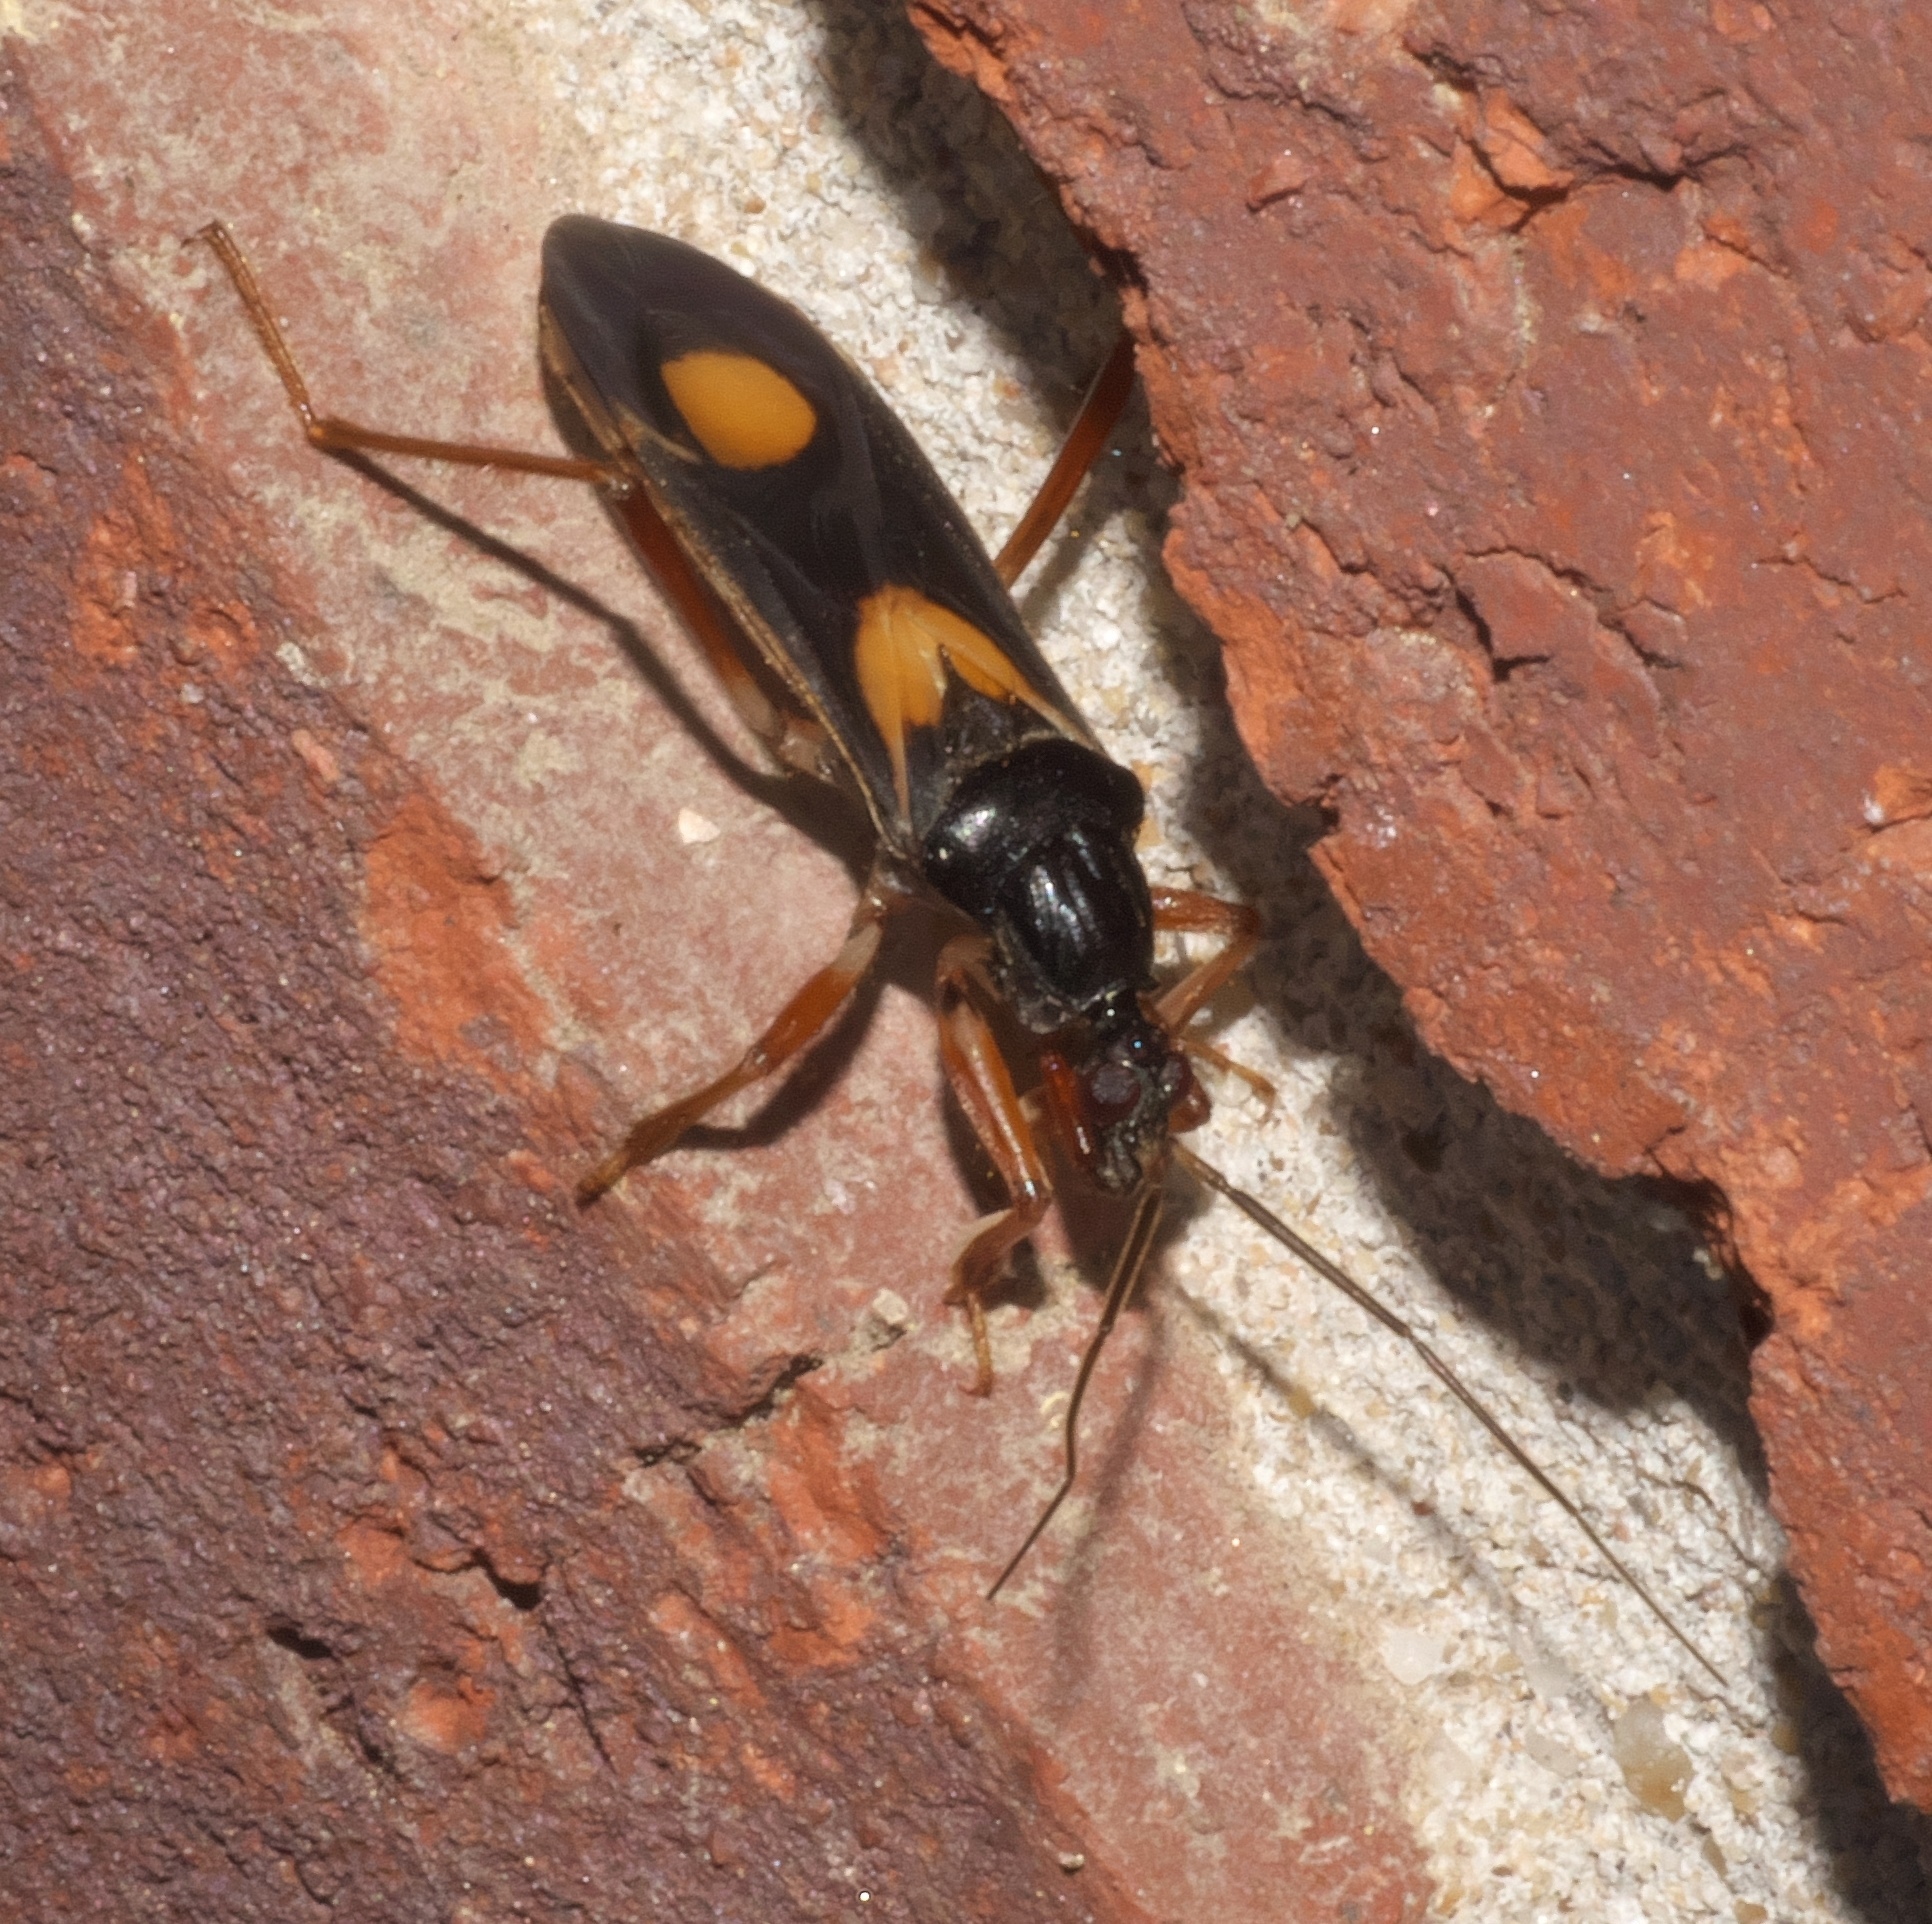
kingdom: Animalia
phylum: Arthropoda
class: Insecta
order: Hemiptera
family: Reduviidae
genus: Rasahus
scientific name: Rasahus hamatus
